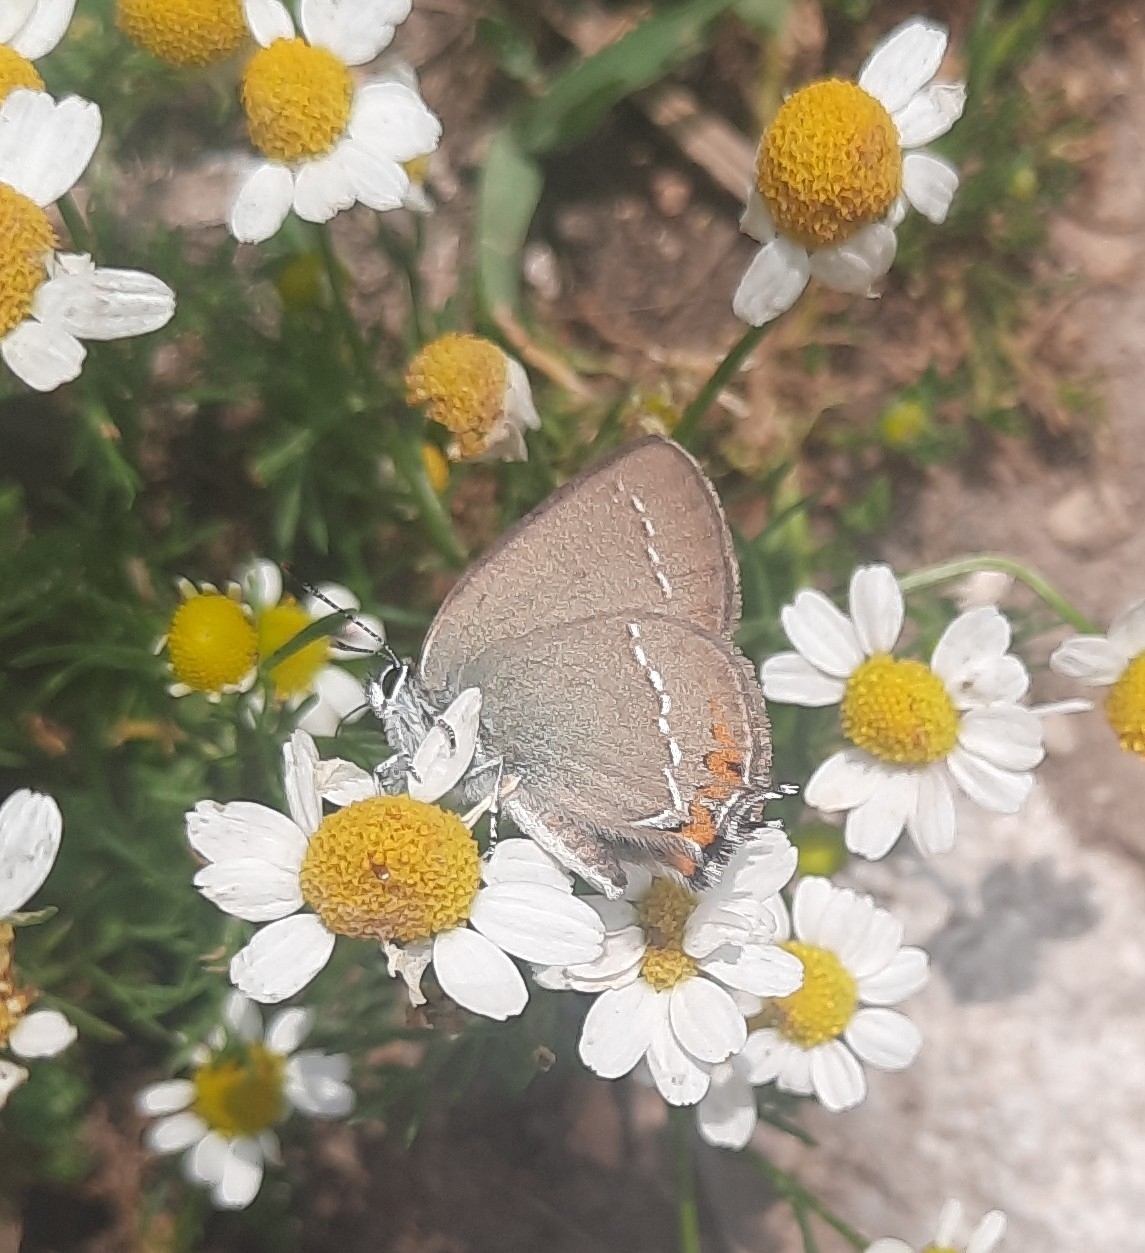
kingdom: Animalia
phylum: Arthropoda
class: Insecta
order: Lepidoptera
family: Lycaenidae
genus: Strymon
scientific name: Strymon acaciae
